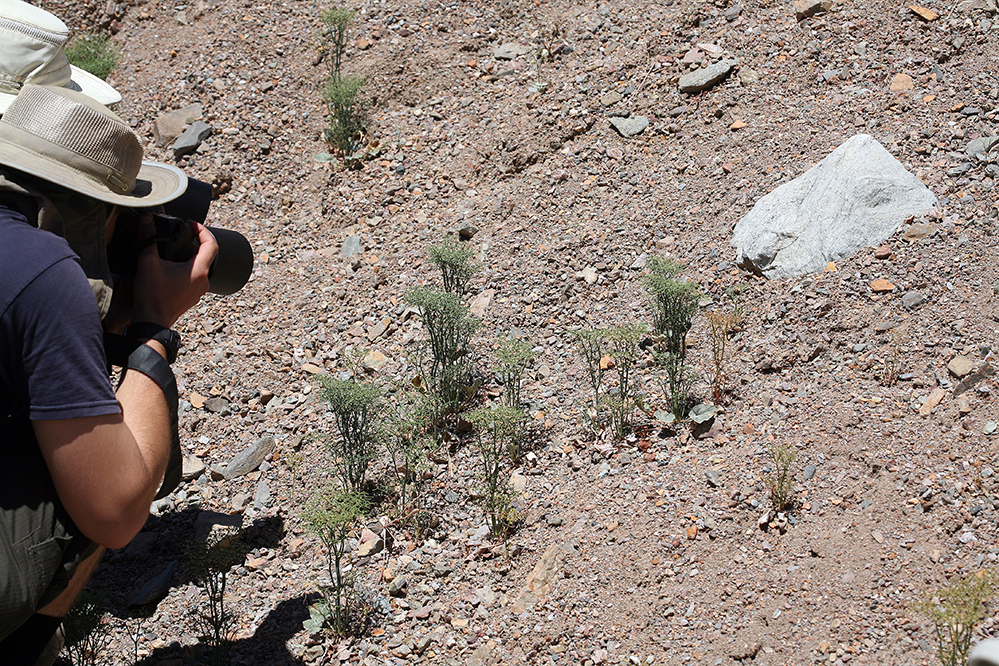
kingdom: Plantae
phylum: Tracheophyta
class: Magnoliopsida
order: Caryophyllales
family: Polygonaceae
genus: Eriogonum
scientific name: Eriogonum rixfordii
